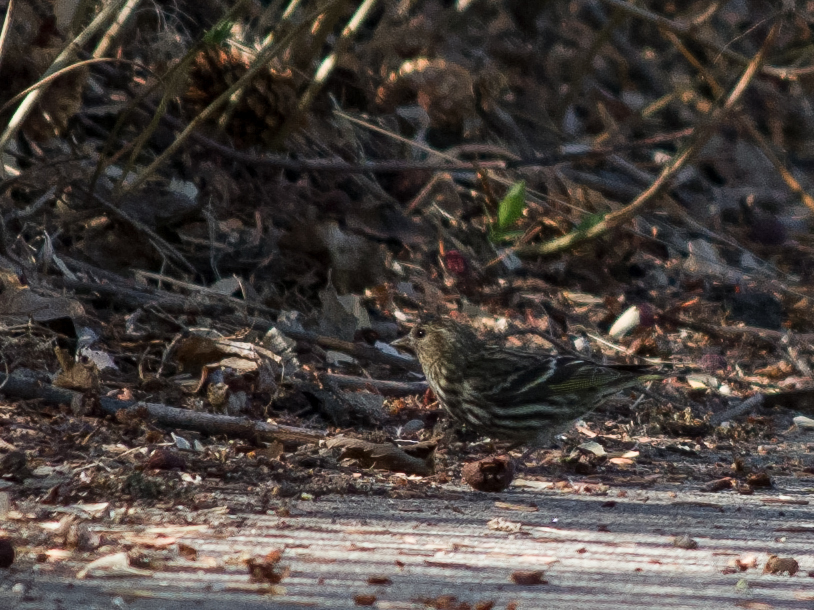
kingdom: Animalia
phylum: Chordata
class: Aves
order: Passeriformes
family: Fringillidae
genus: Spinus
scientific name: Spinus pinus
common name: Pine siskin
